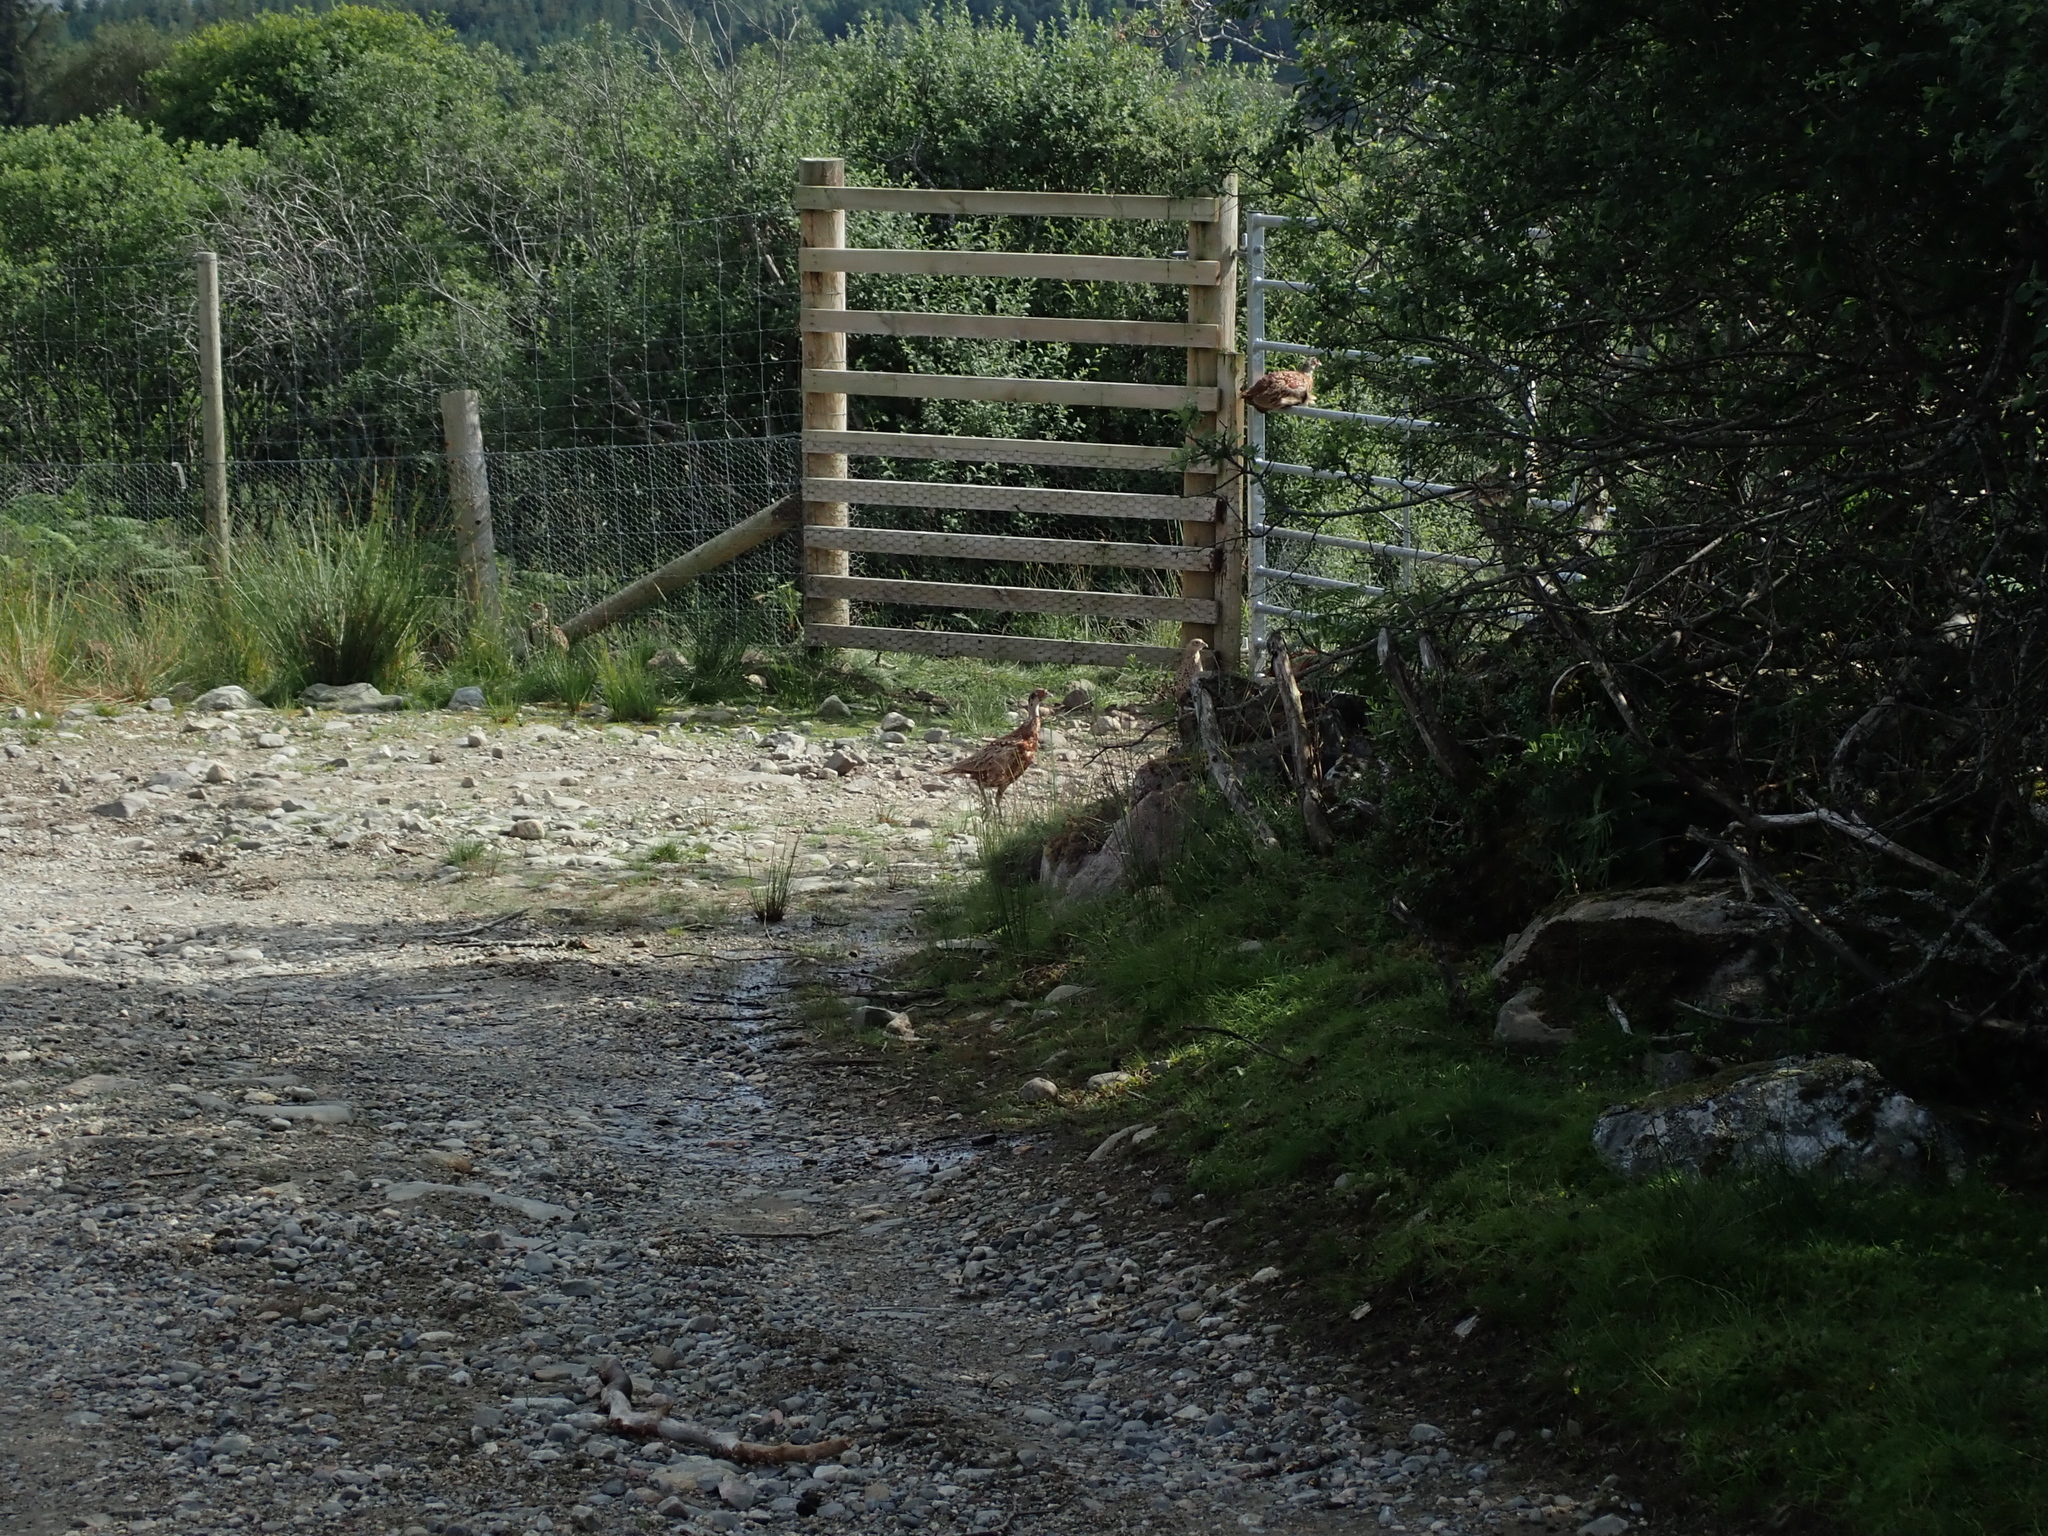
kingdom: Animalia
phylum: Chordata
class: Aves
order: Galliformes
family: Phasianidae
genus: Phasianus
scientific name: Phasianus colchicus
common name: Common pheasant
